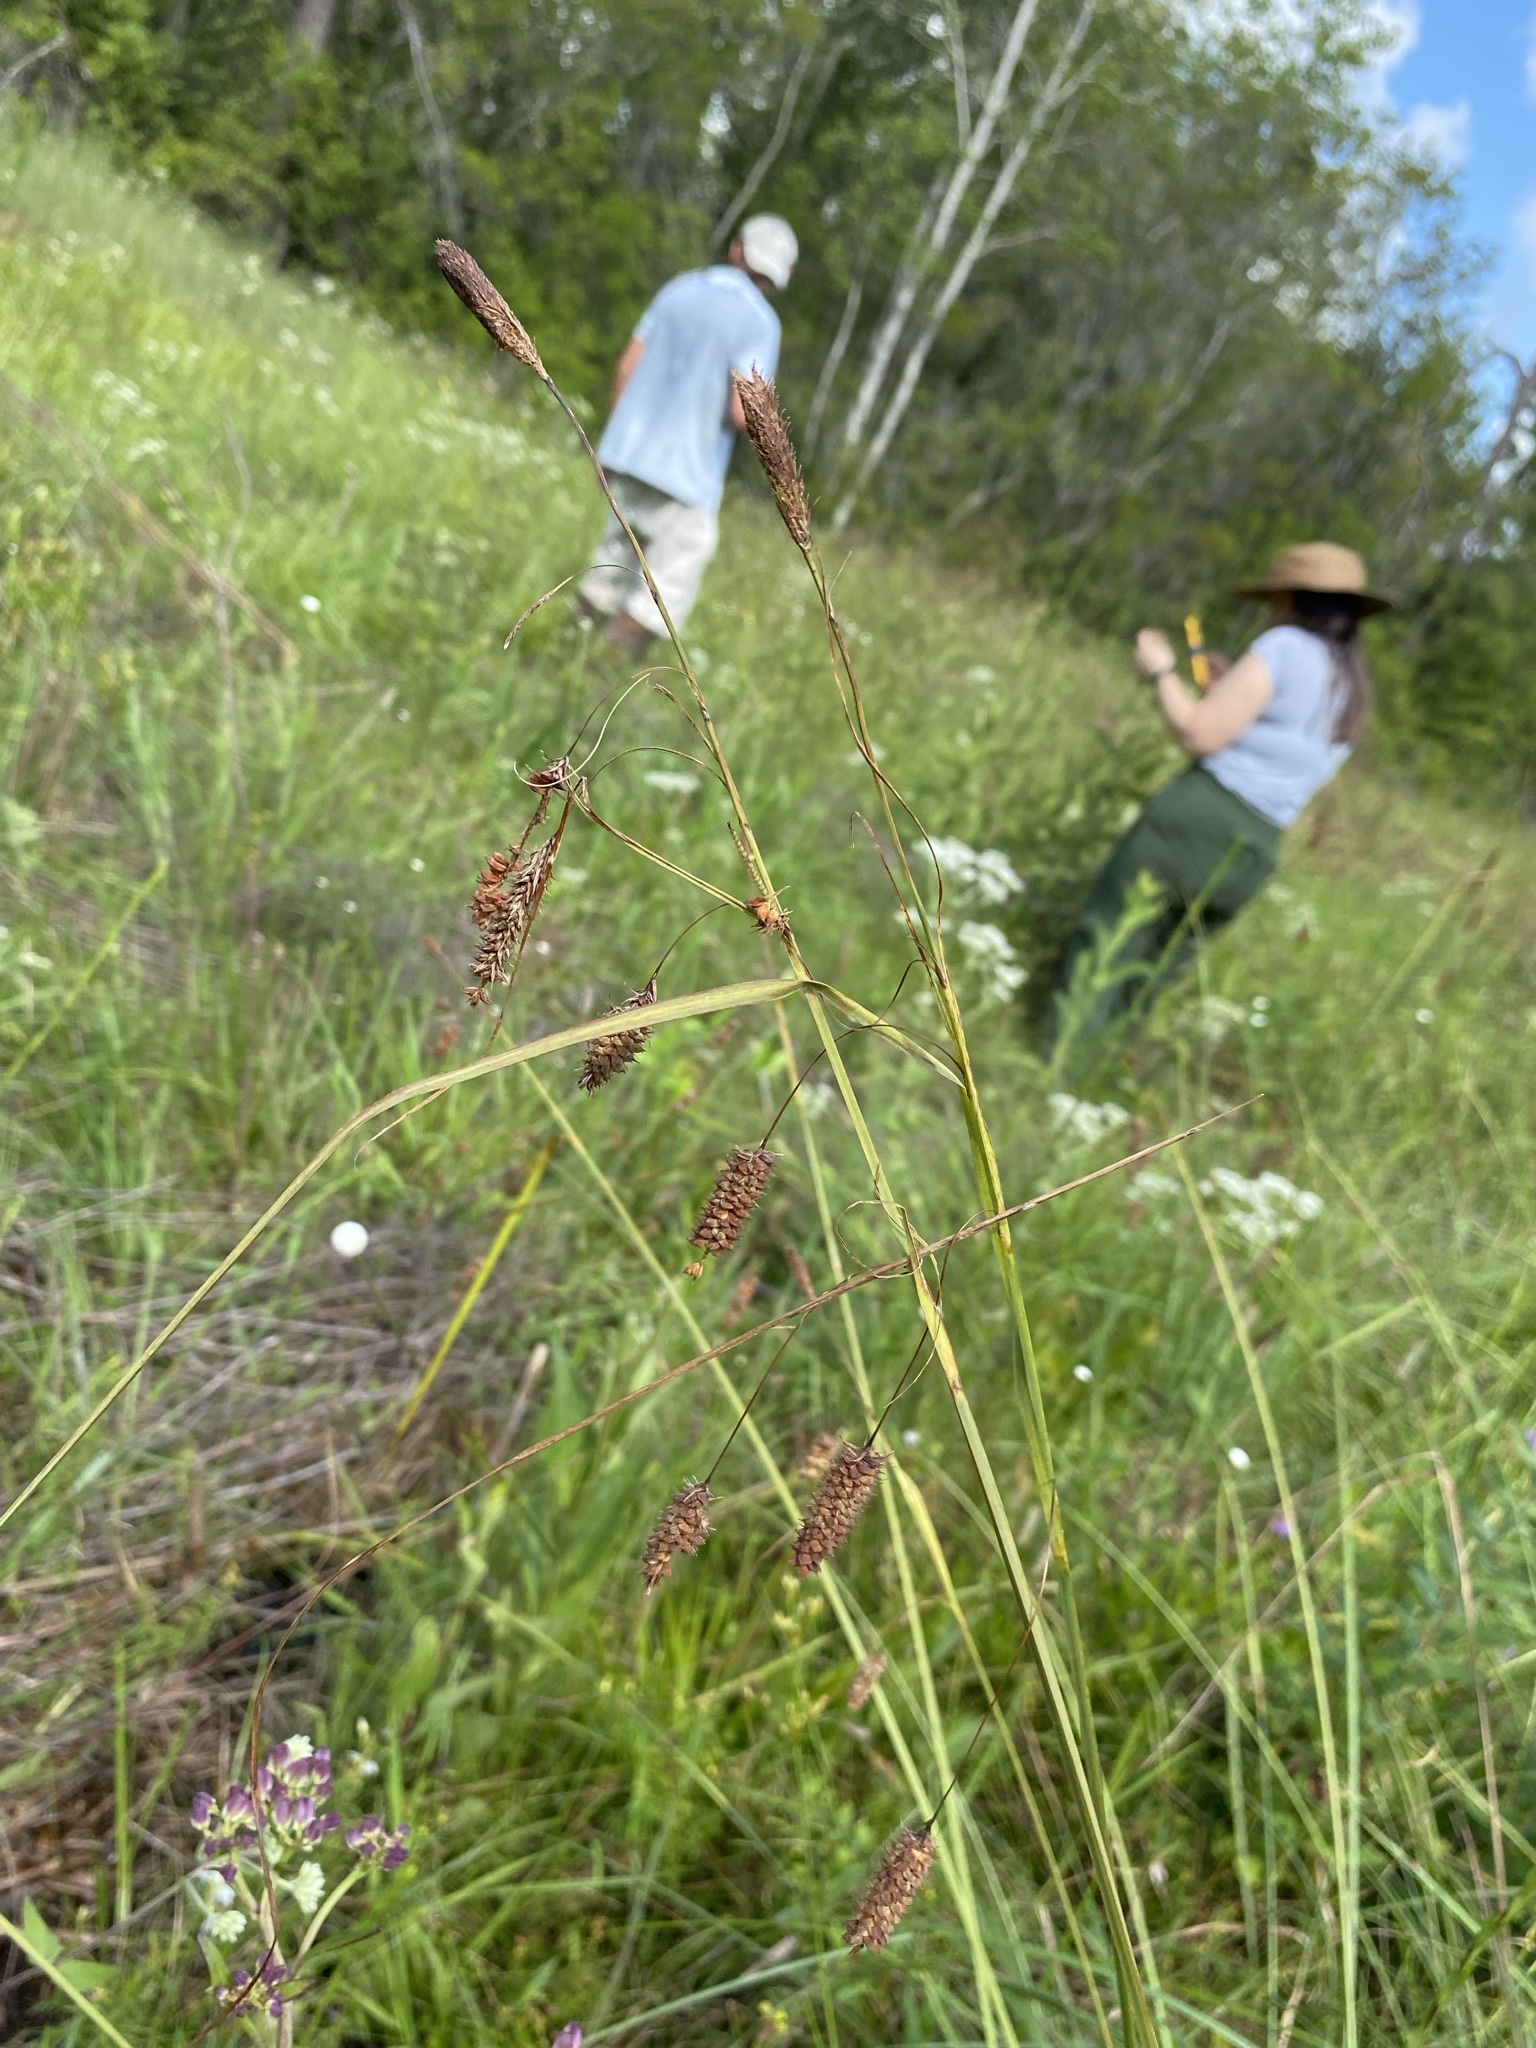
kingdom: Plantae
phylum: Tracheophyta
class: Liliopsida
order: Poales
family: Cyperaceae
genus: Carex
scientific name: Carex glaucescens
